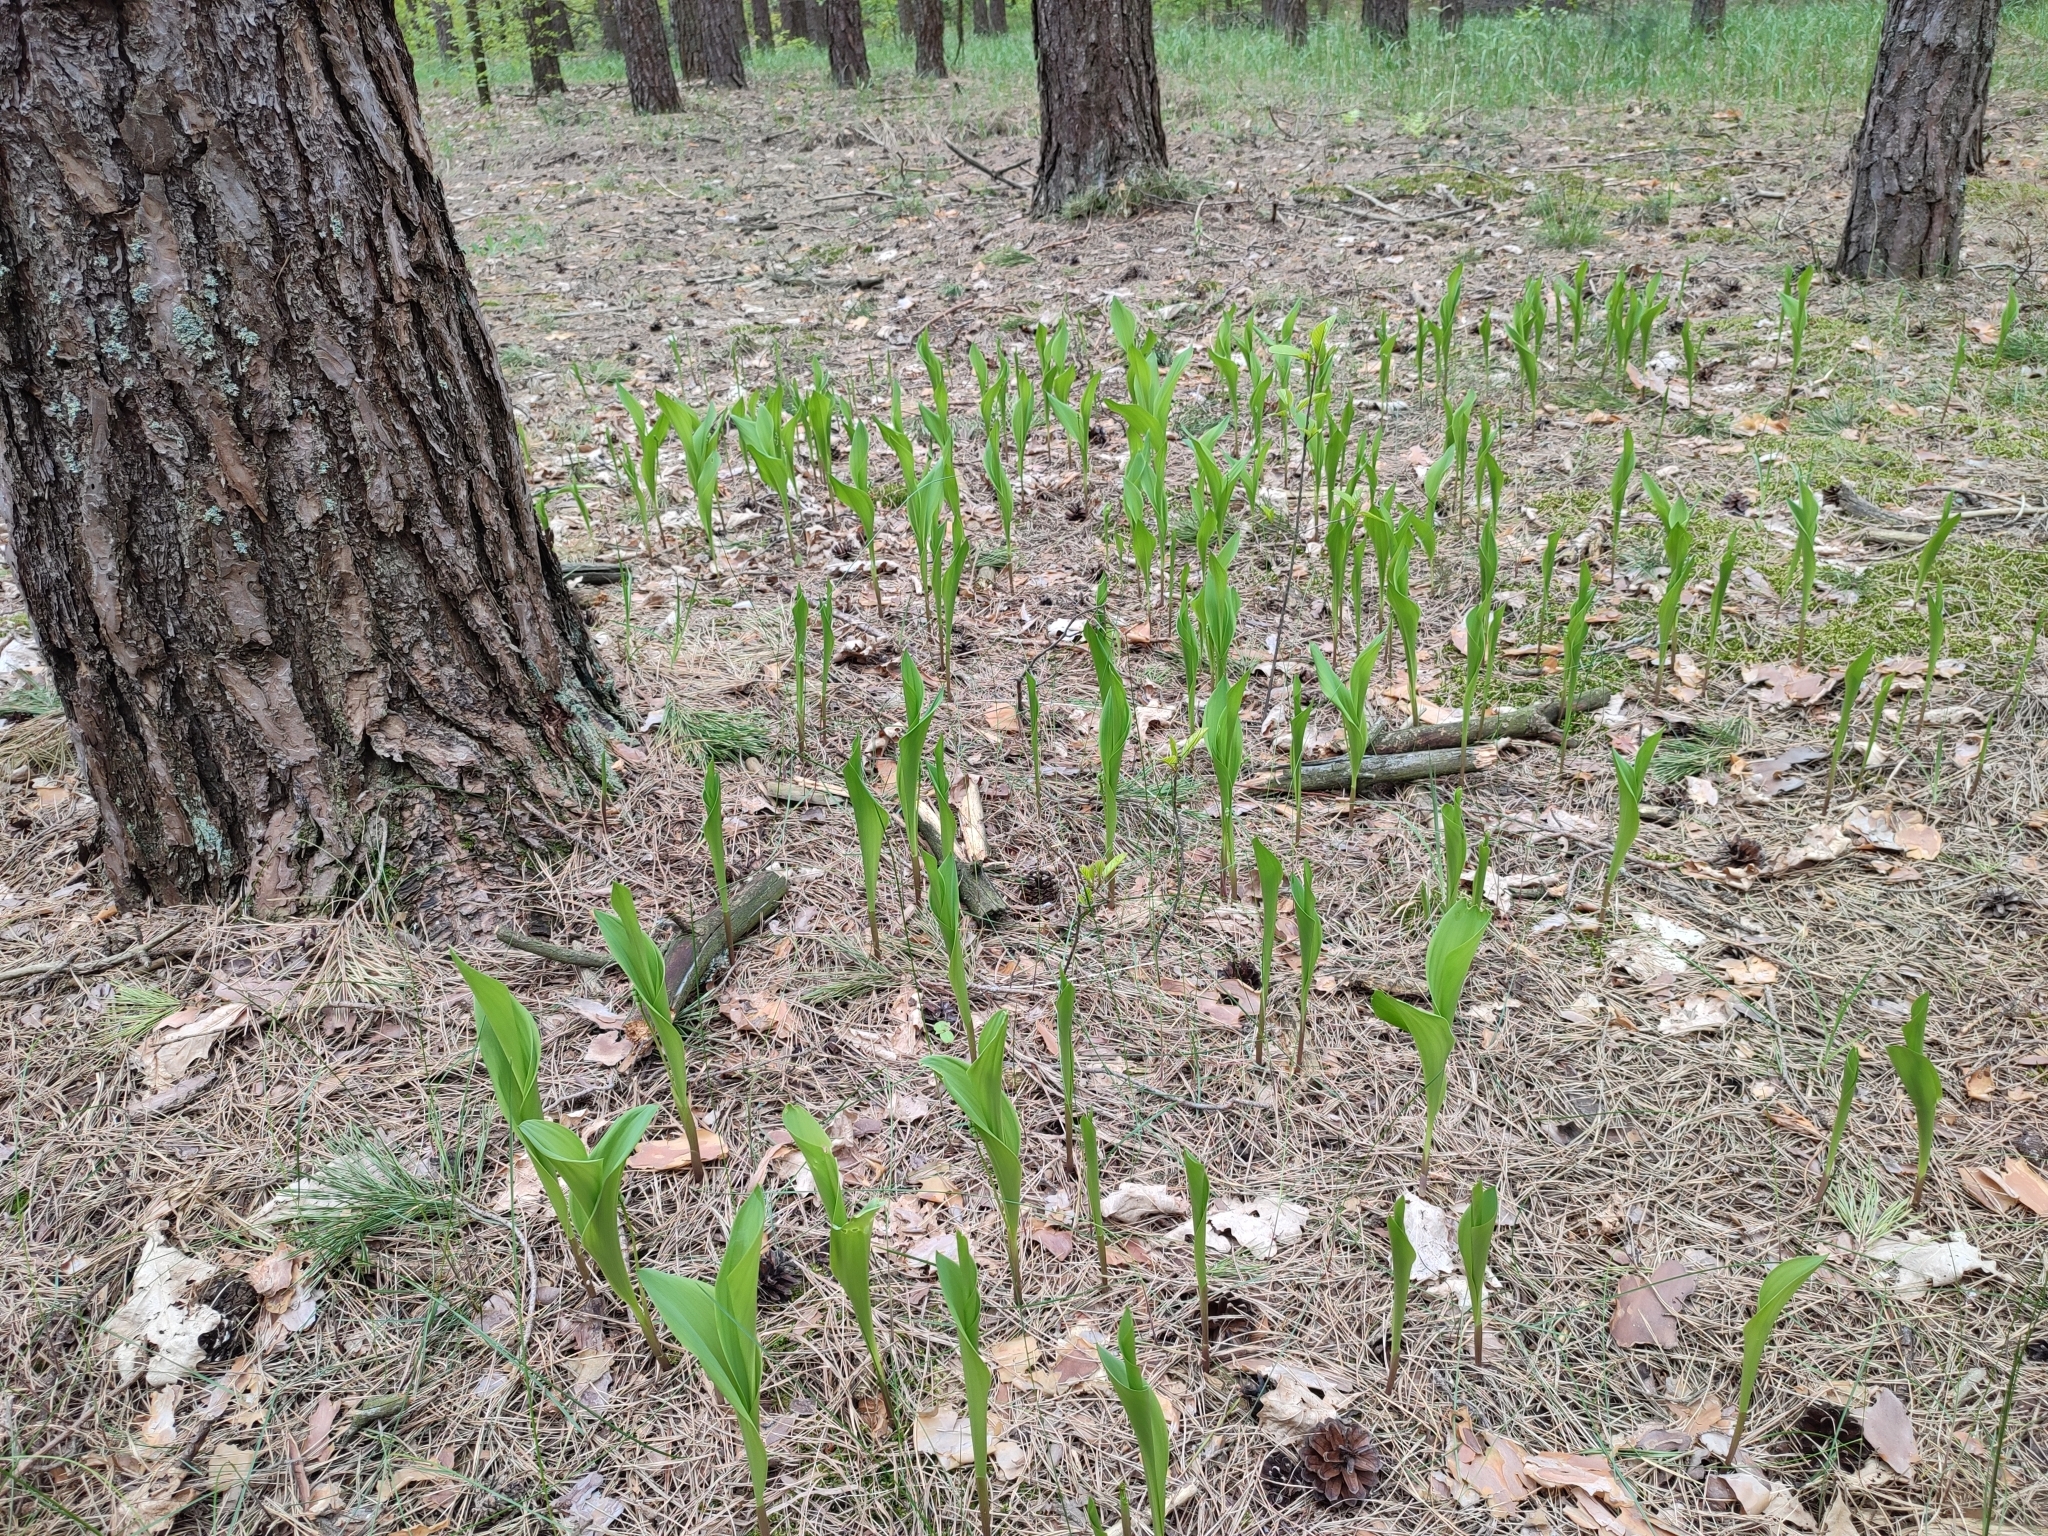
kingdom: Plantae
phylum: Tracheophyta
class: Liliopsida
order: Asparagales
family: Asparagaceae
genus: Convallaria
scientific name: Convallaria majalis
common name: Lily-of-the-valley
